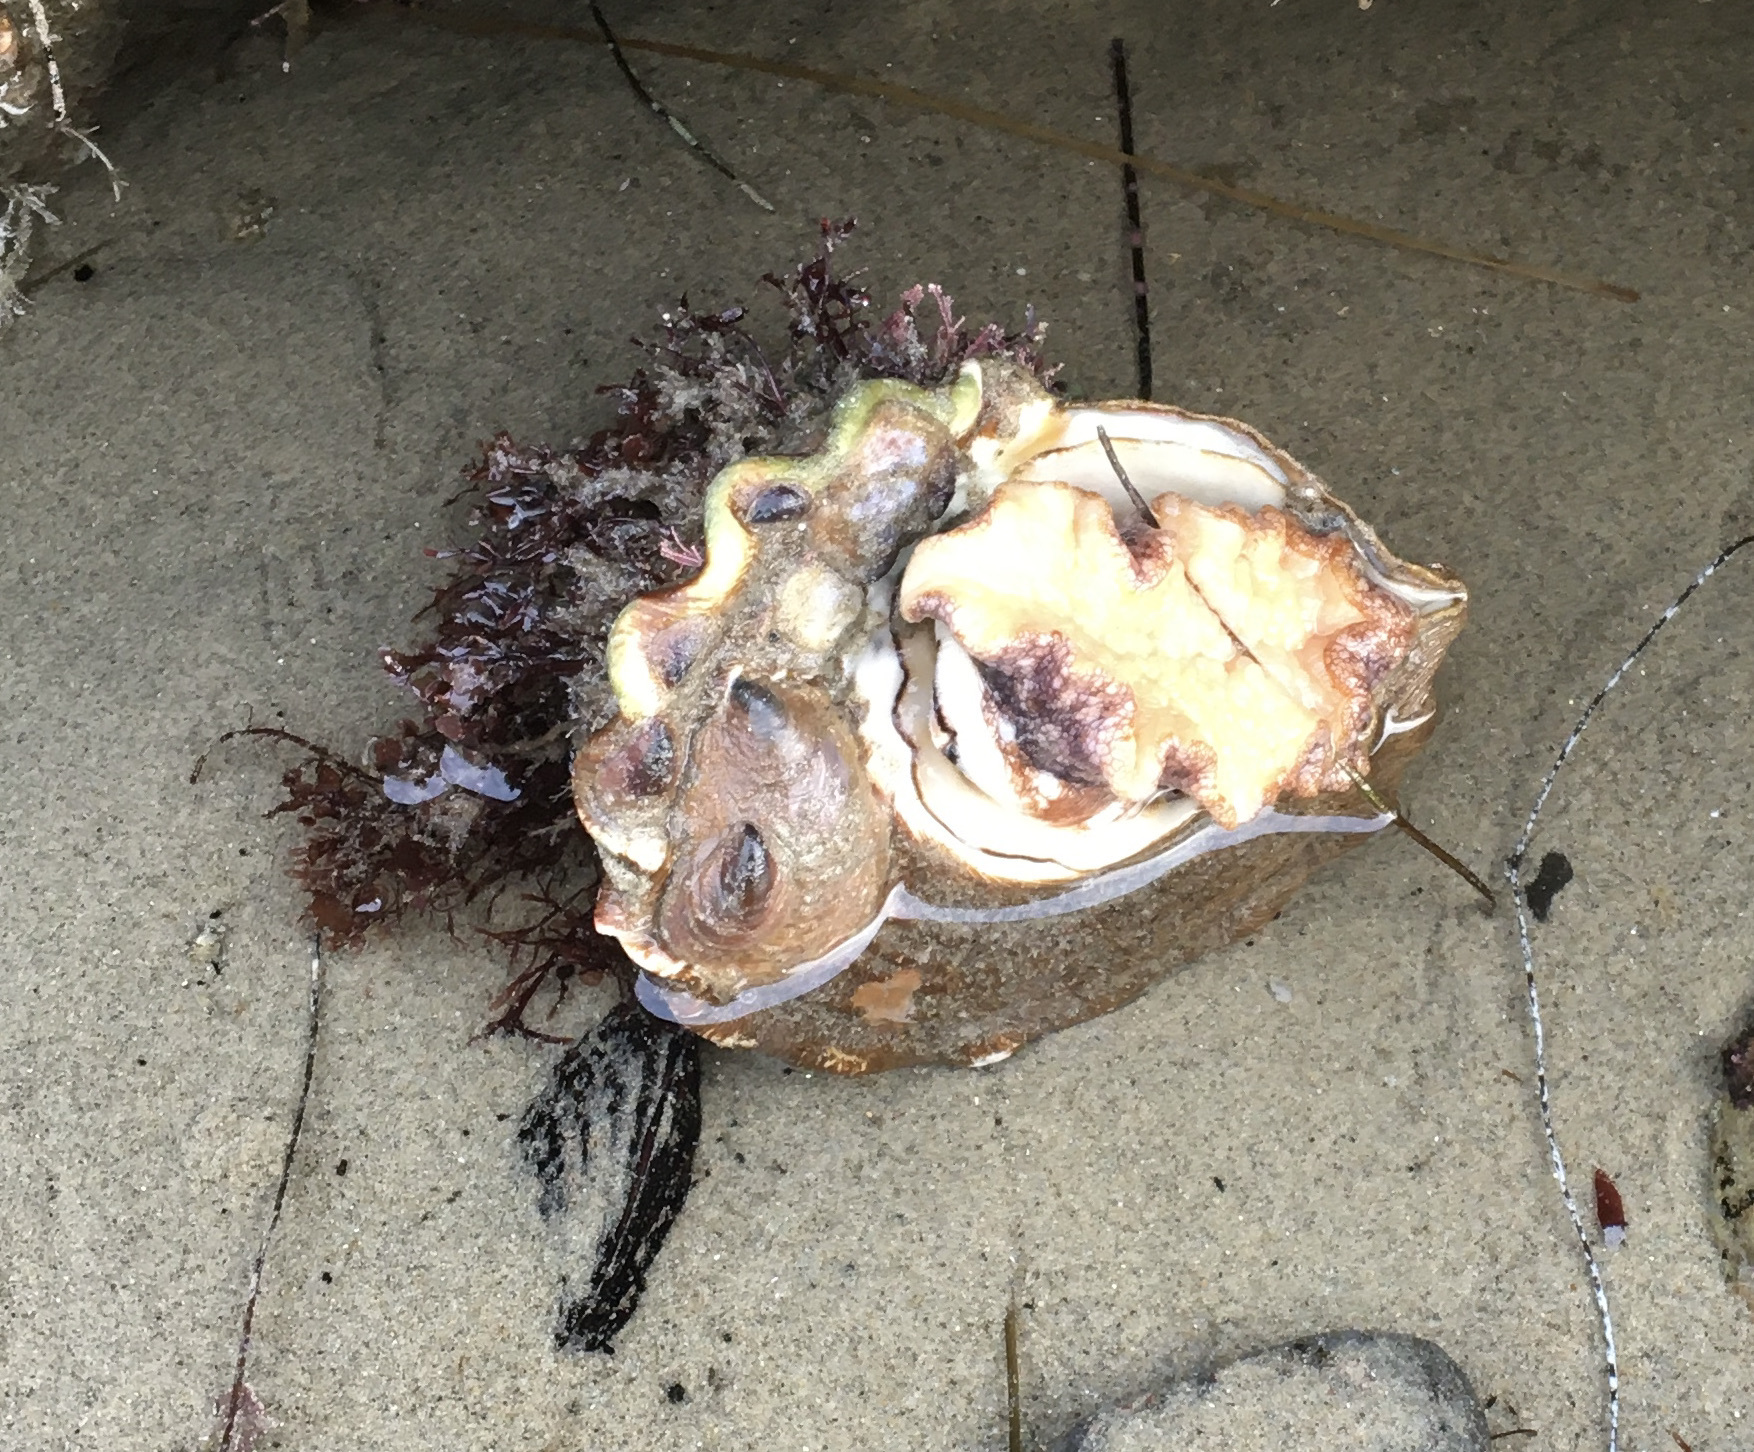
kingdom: Animalia
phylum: Mollusca
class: Gastropoda
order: Trochida
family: Turbinidae
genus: Megastraea
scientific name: Megastraea undosa
